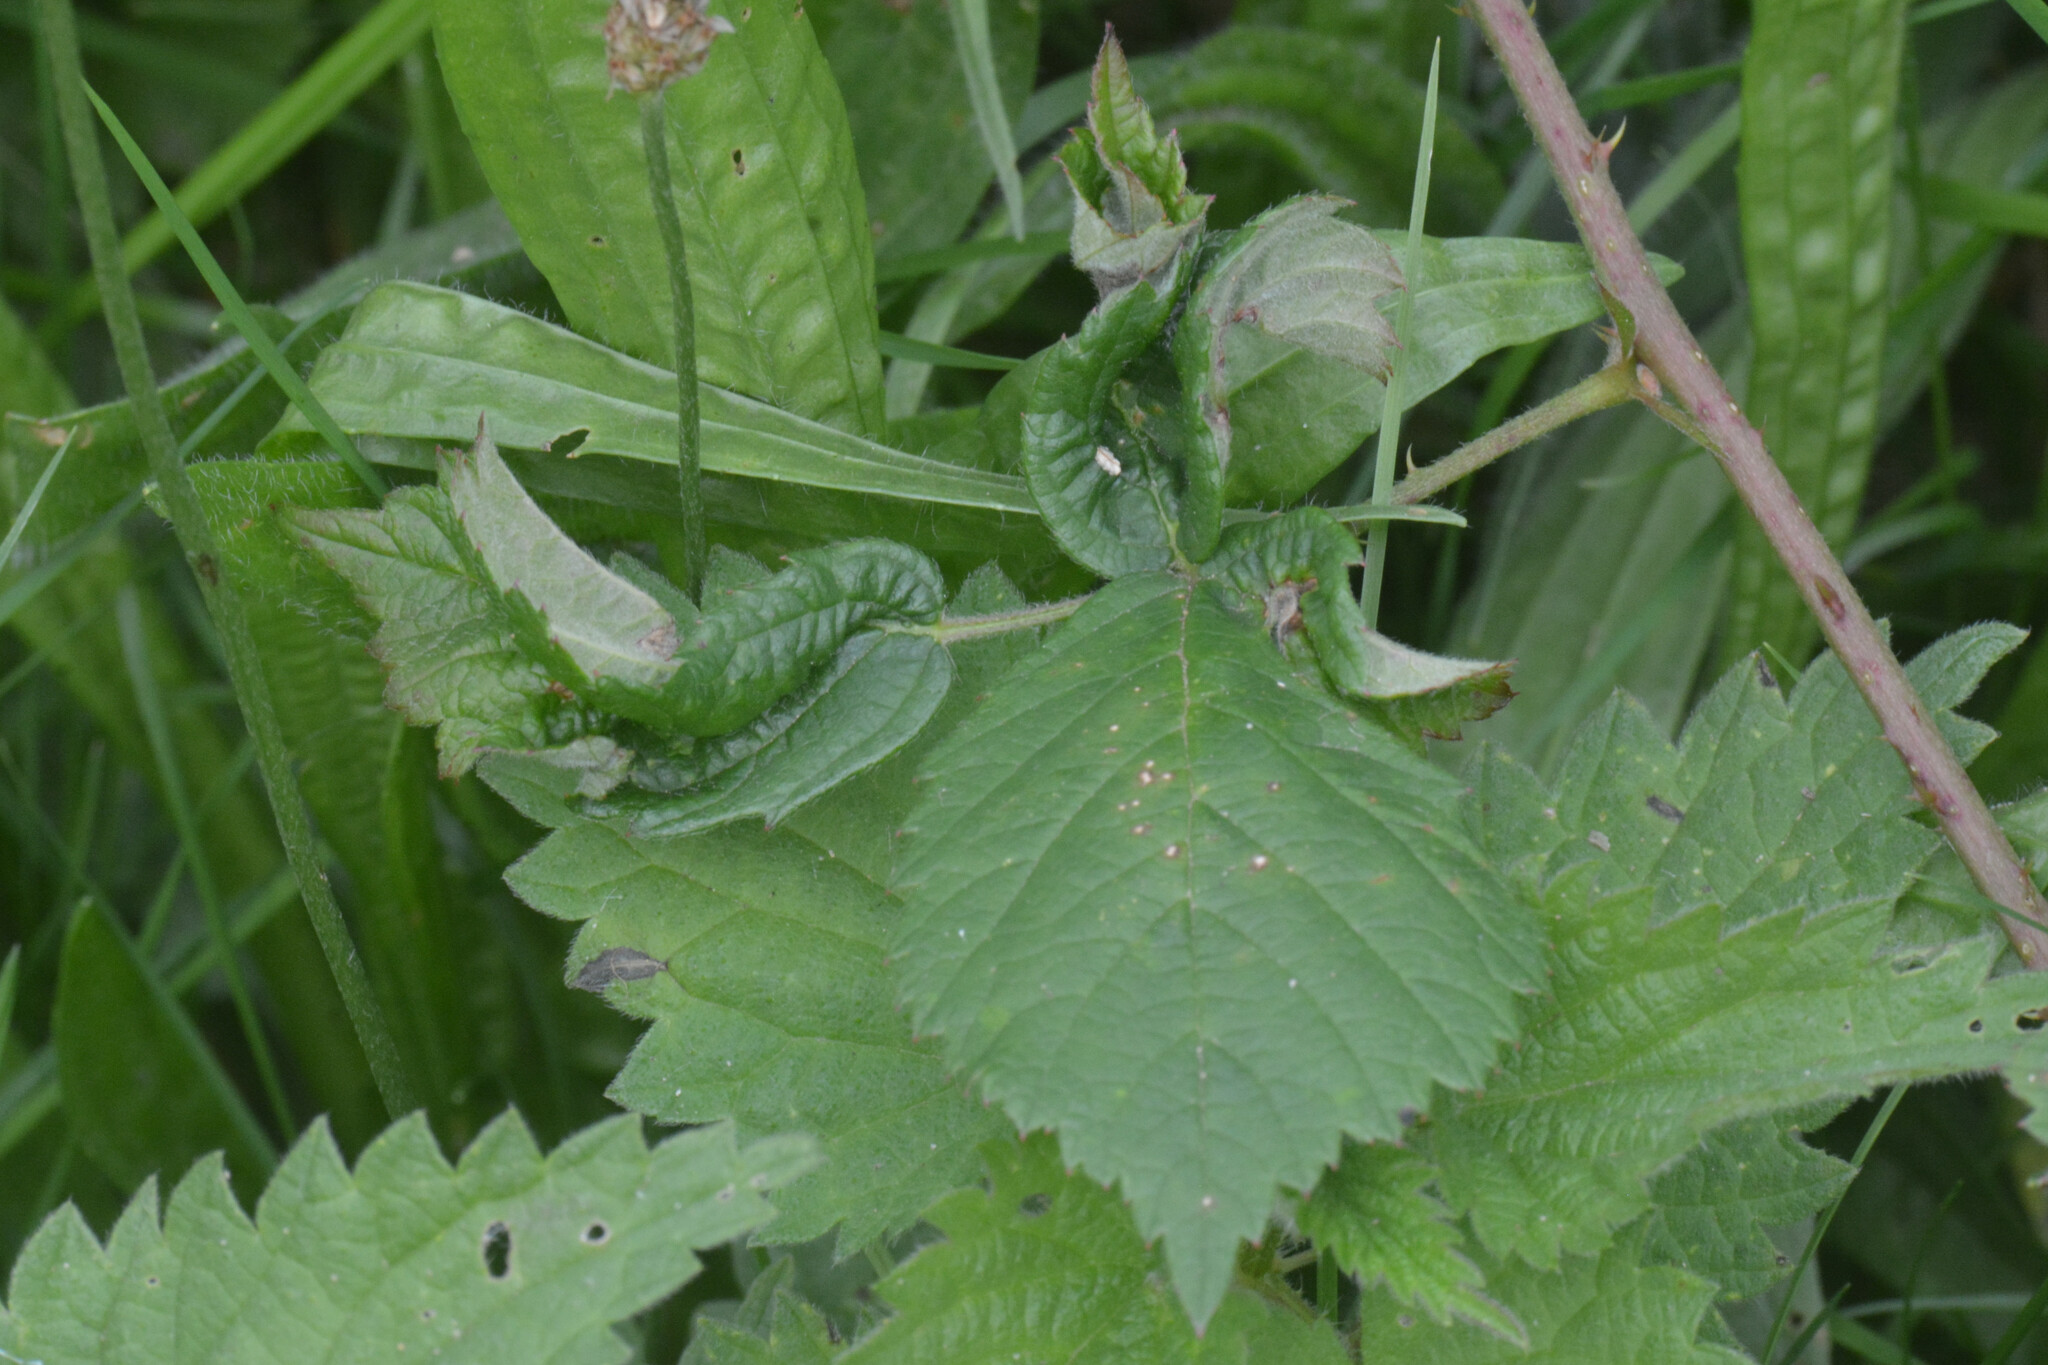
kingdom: Animalia
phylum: Arthropoda
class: Insecta
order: Diptera
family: Cecidomyiidae
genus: Dasineura
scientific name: Dasineura plicatrix
